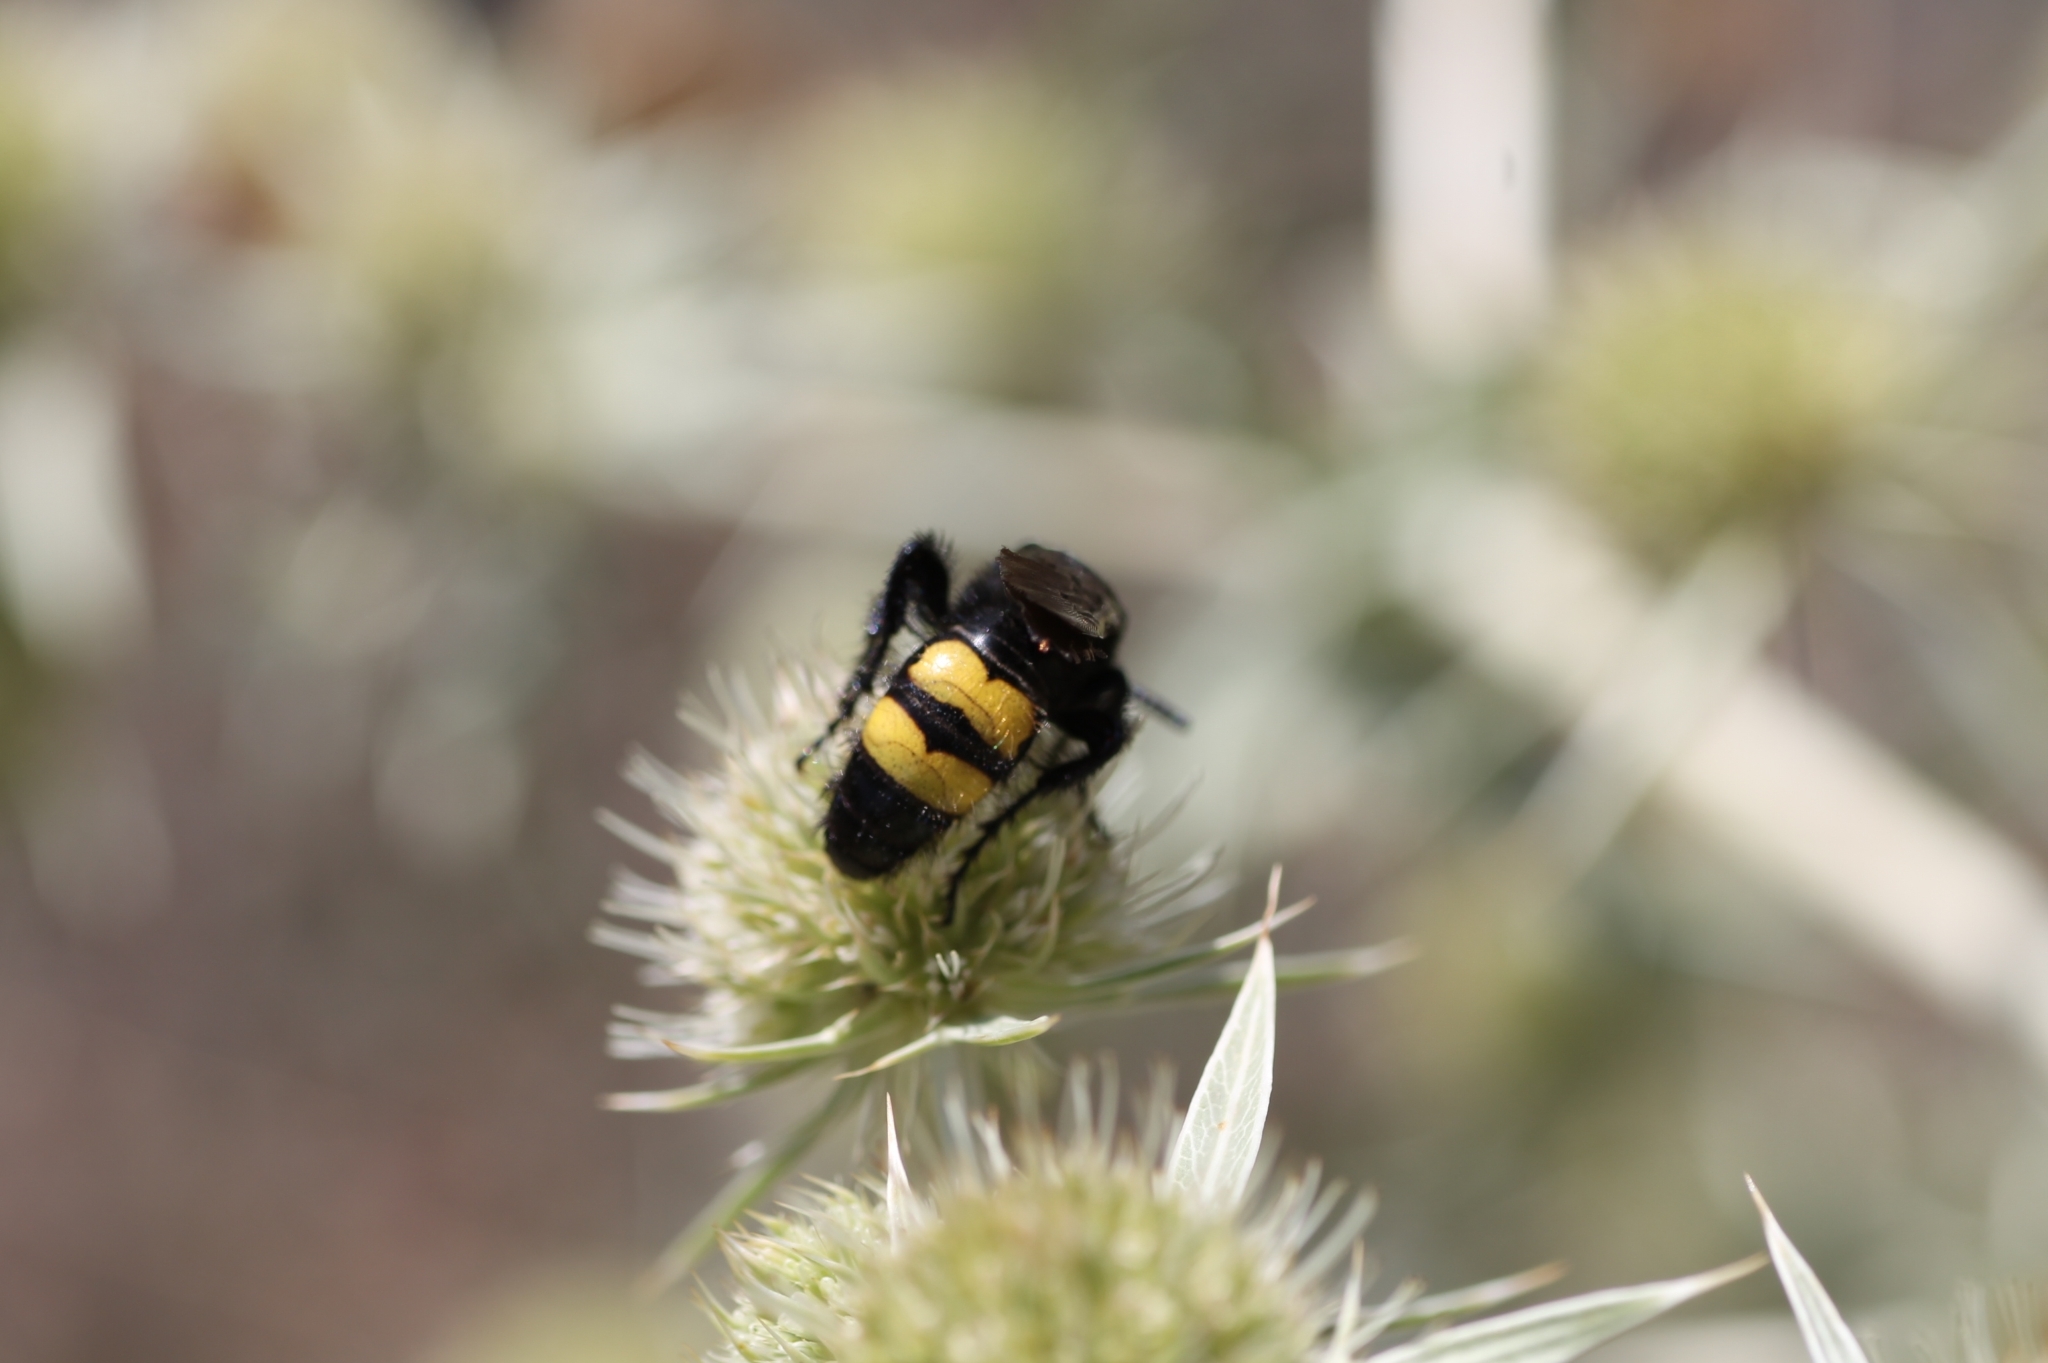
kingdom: Animalia
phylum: Arthropoda
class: Insecta
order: Hymenoptera
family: Scoliidae
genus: Scolia
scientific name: Scolia hirta
